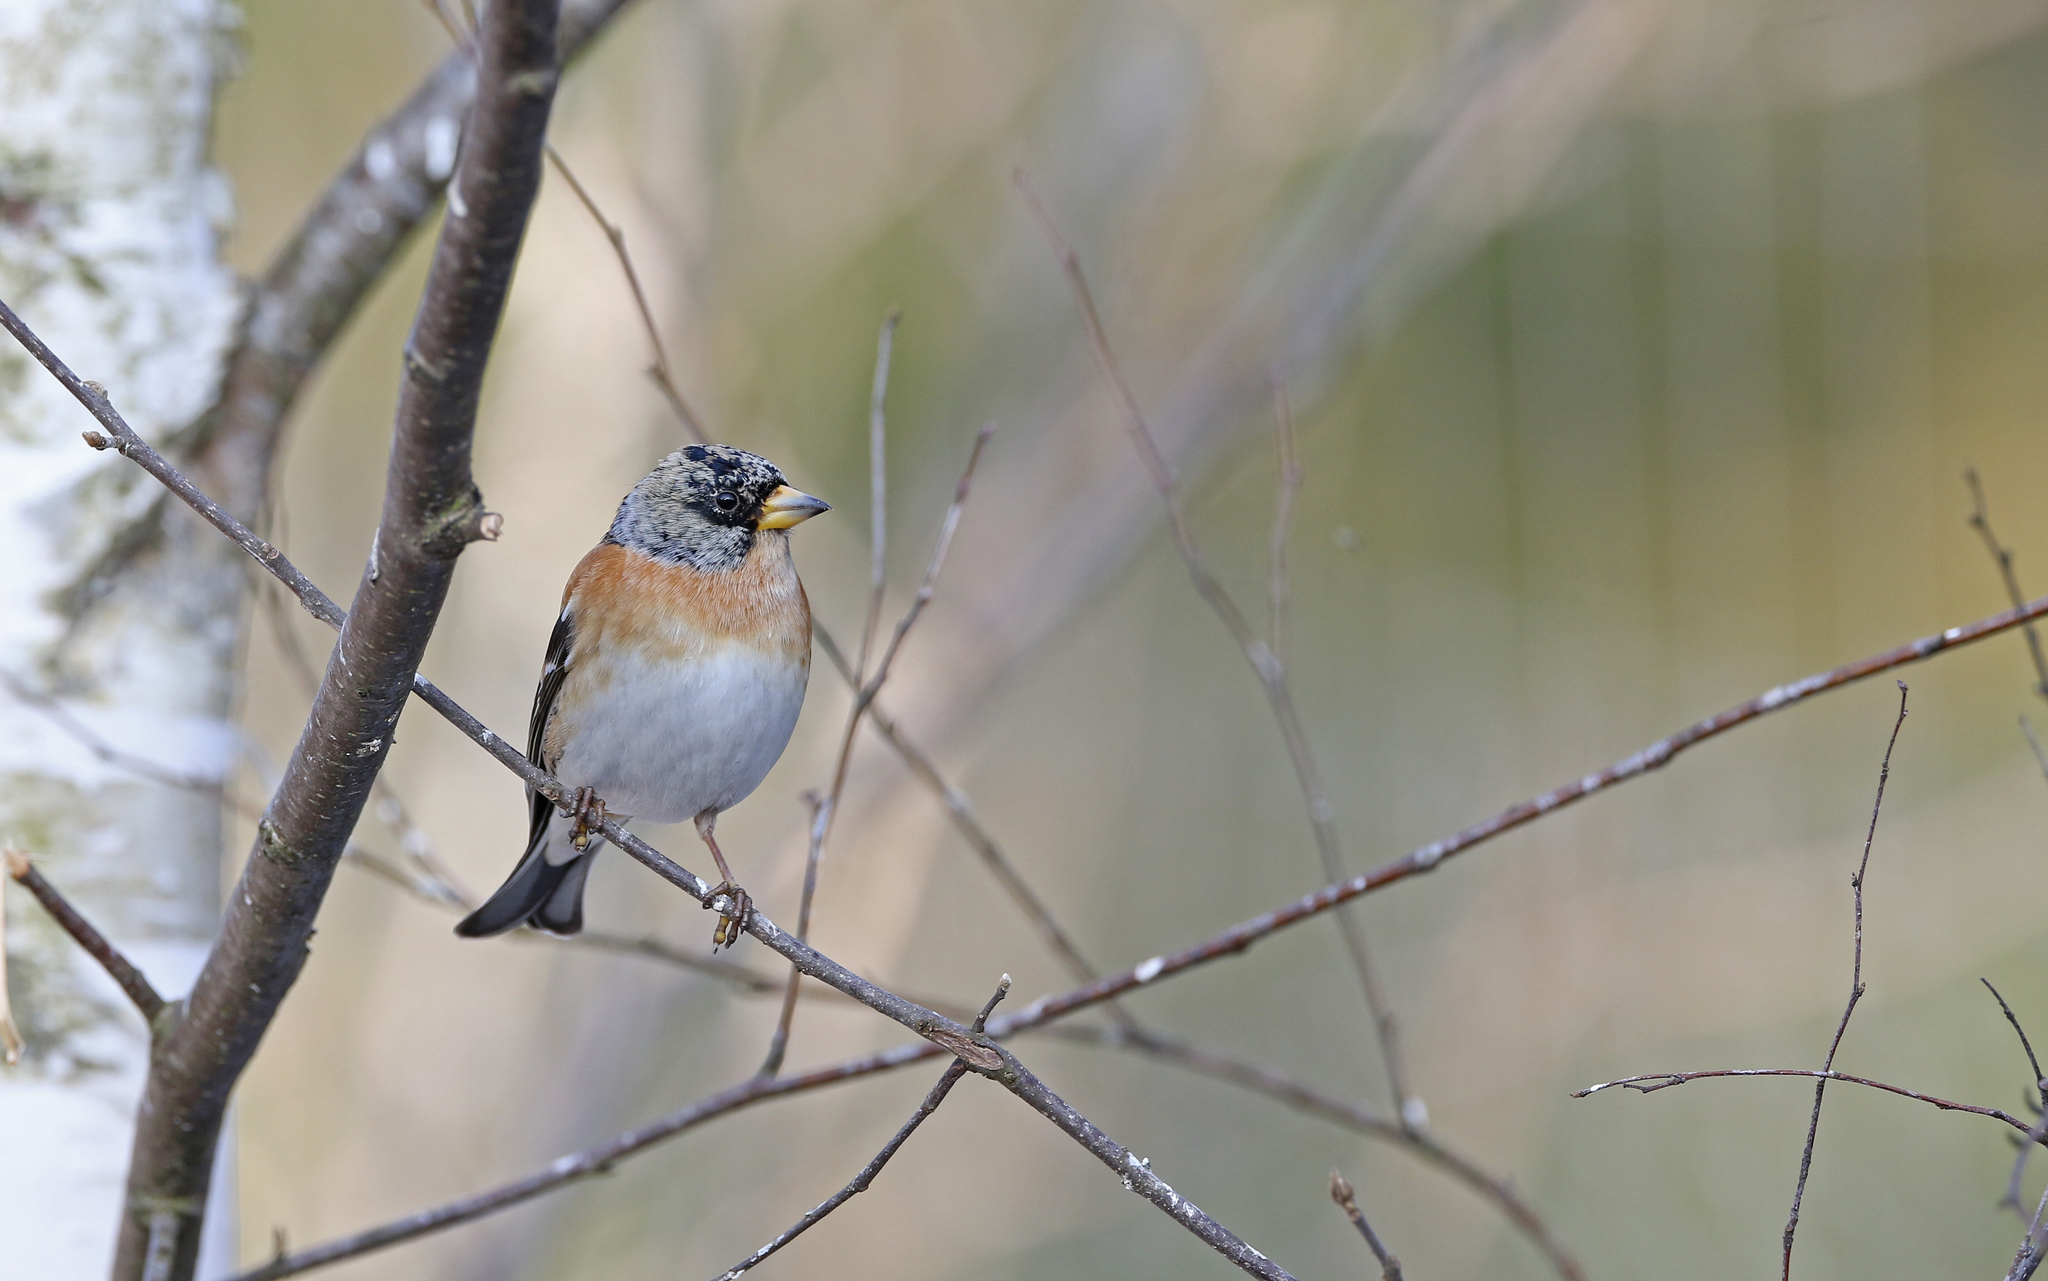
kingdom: Animalia
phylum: Chordata
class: Aves
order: Passeriformes
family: Fringillidae
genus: Fringilla
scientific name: Fringilla montifringilla
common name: Brambling
